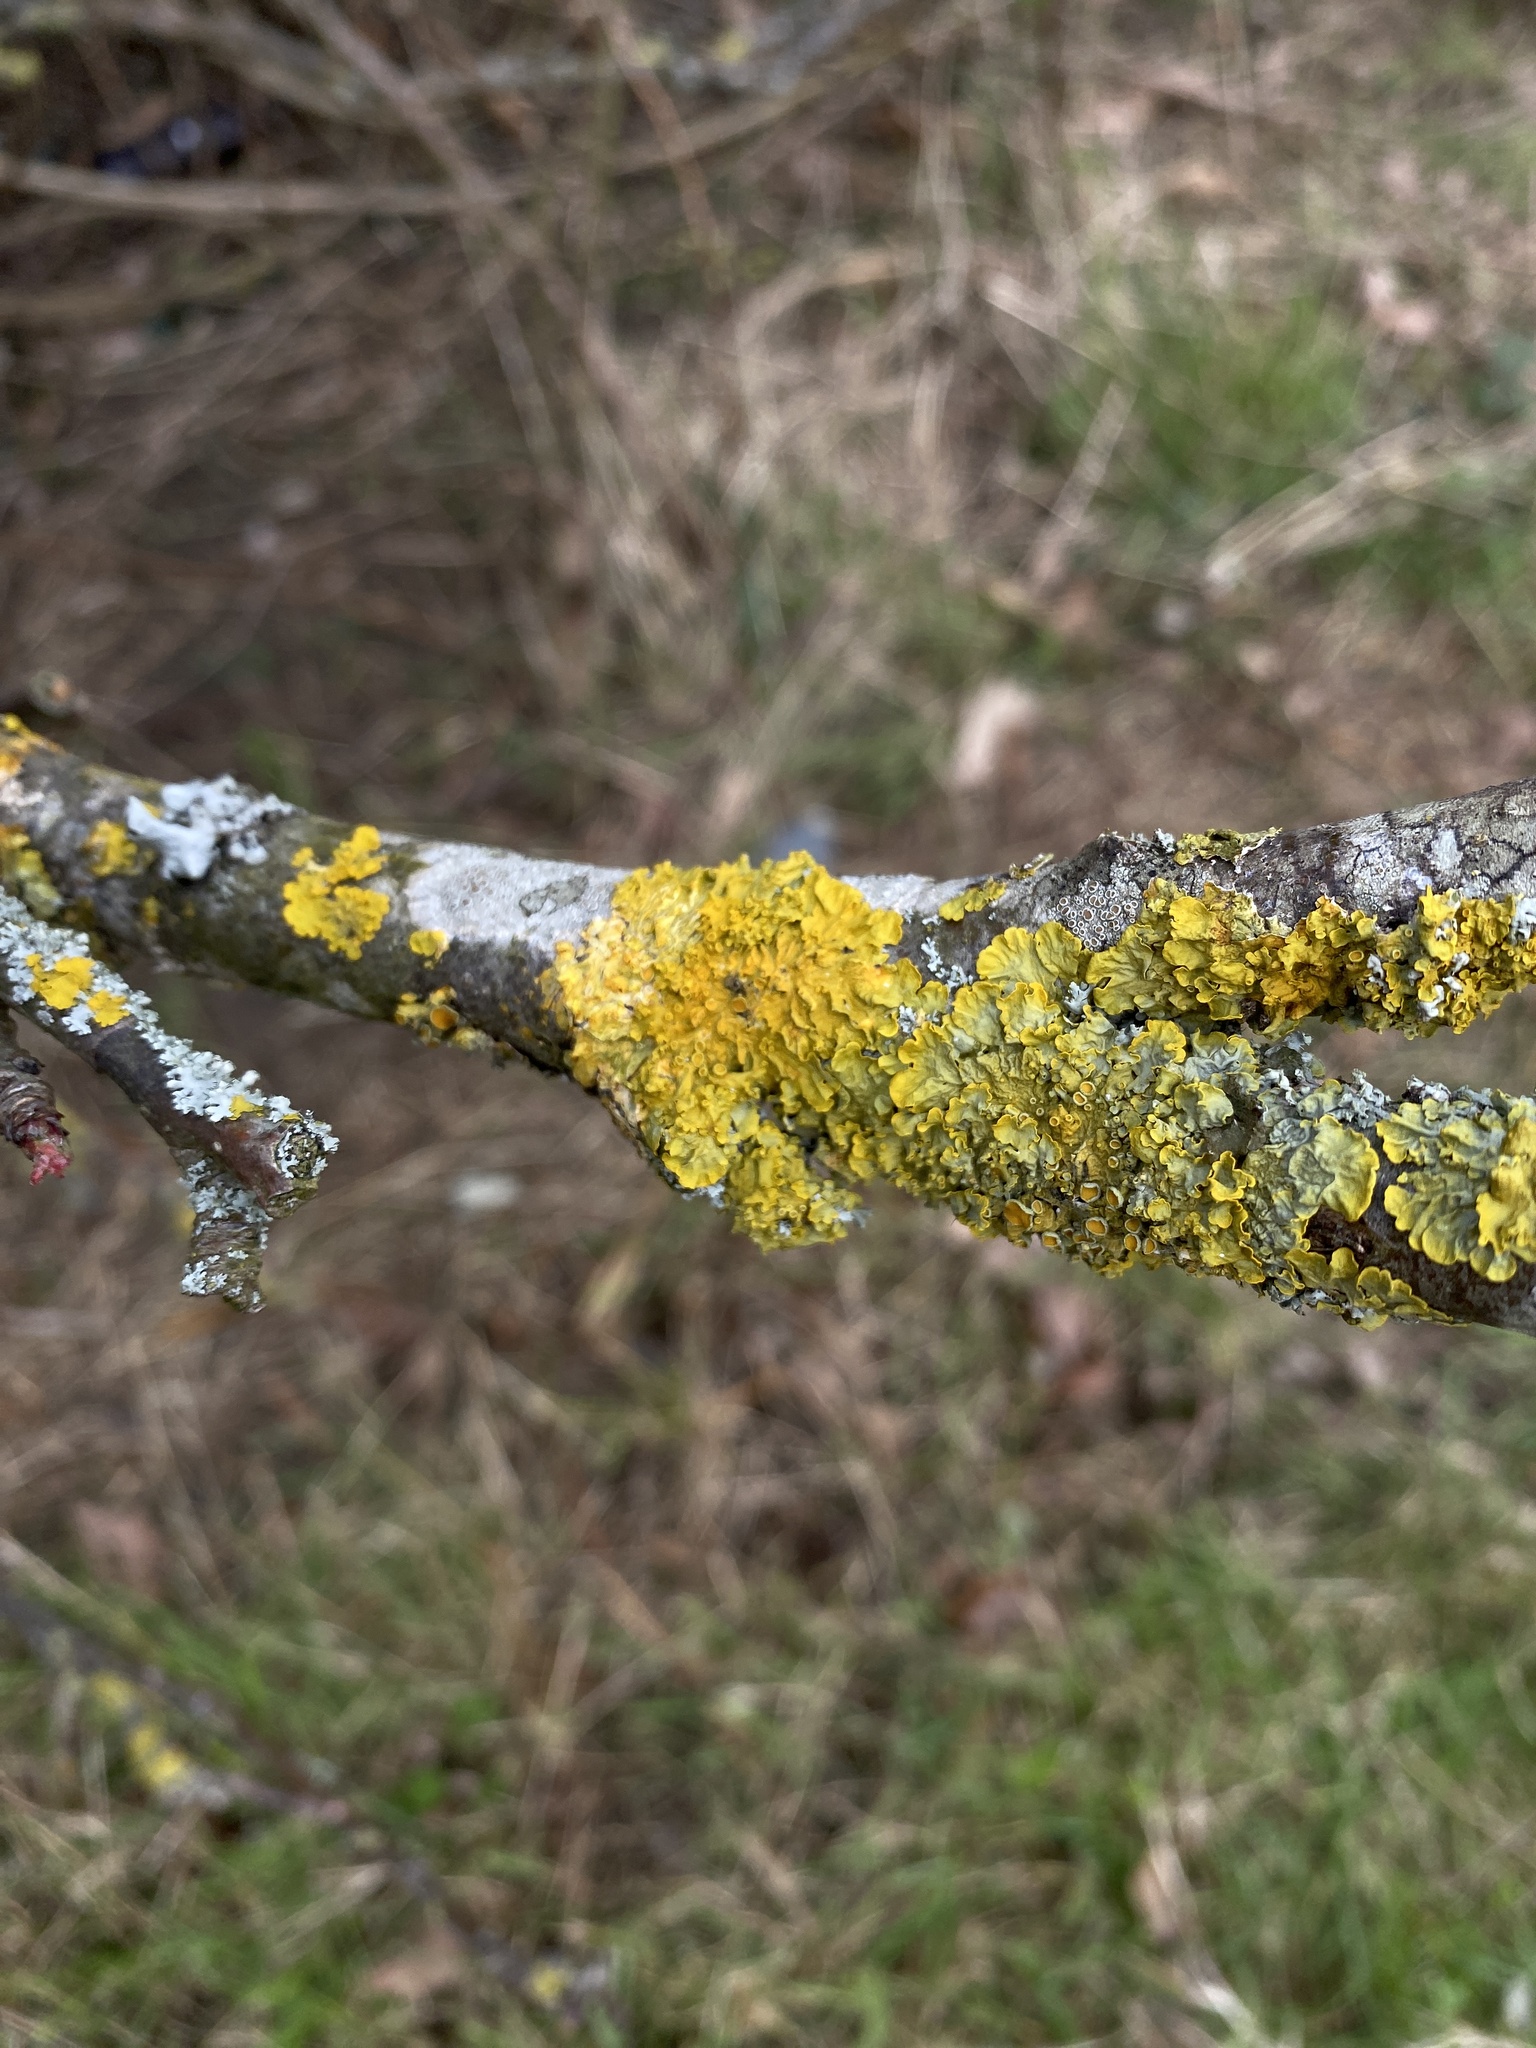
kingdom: Fungi
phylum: Ascomycota
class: Lecanoromycetes
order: Teloschistales
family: Teloschistaceae
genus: Xanthoria
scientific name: Xanthoria parietina
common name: Common orange lichen
